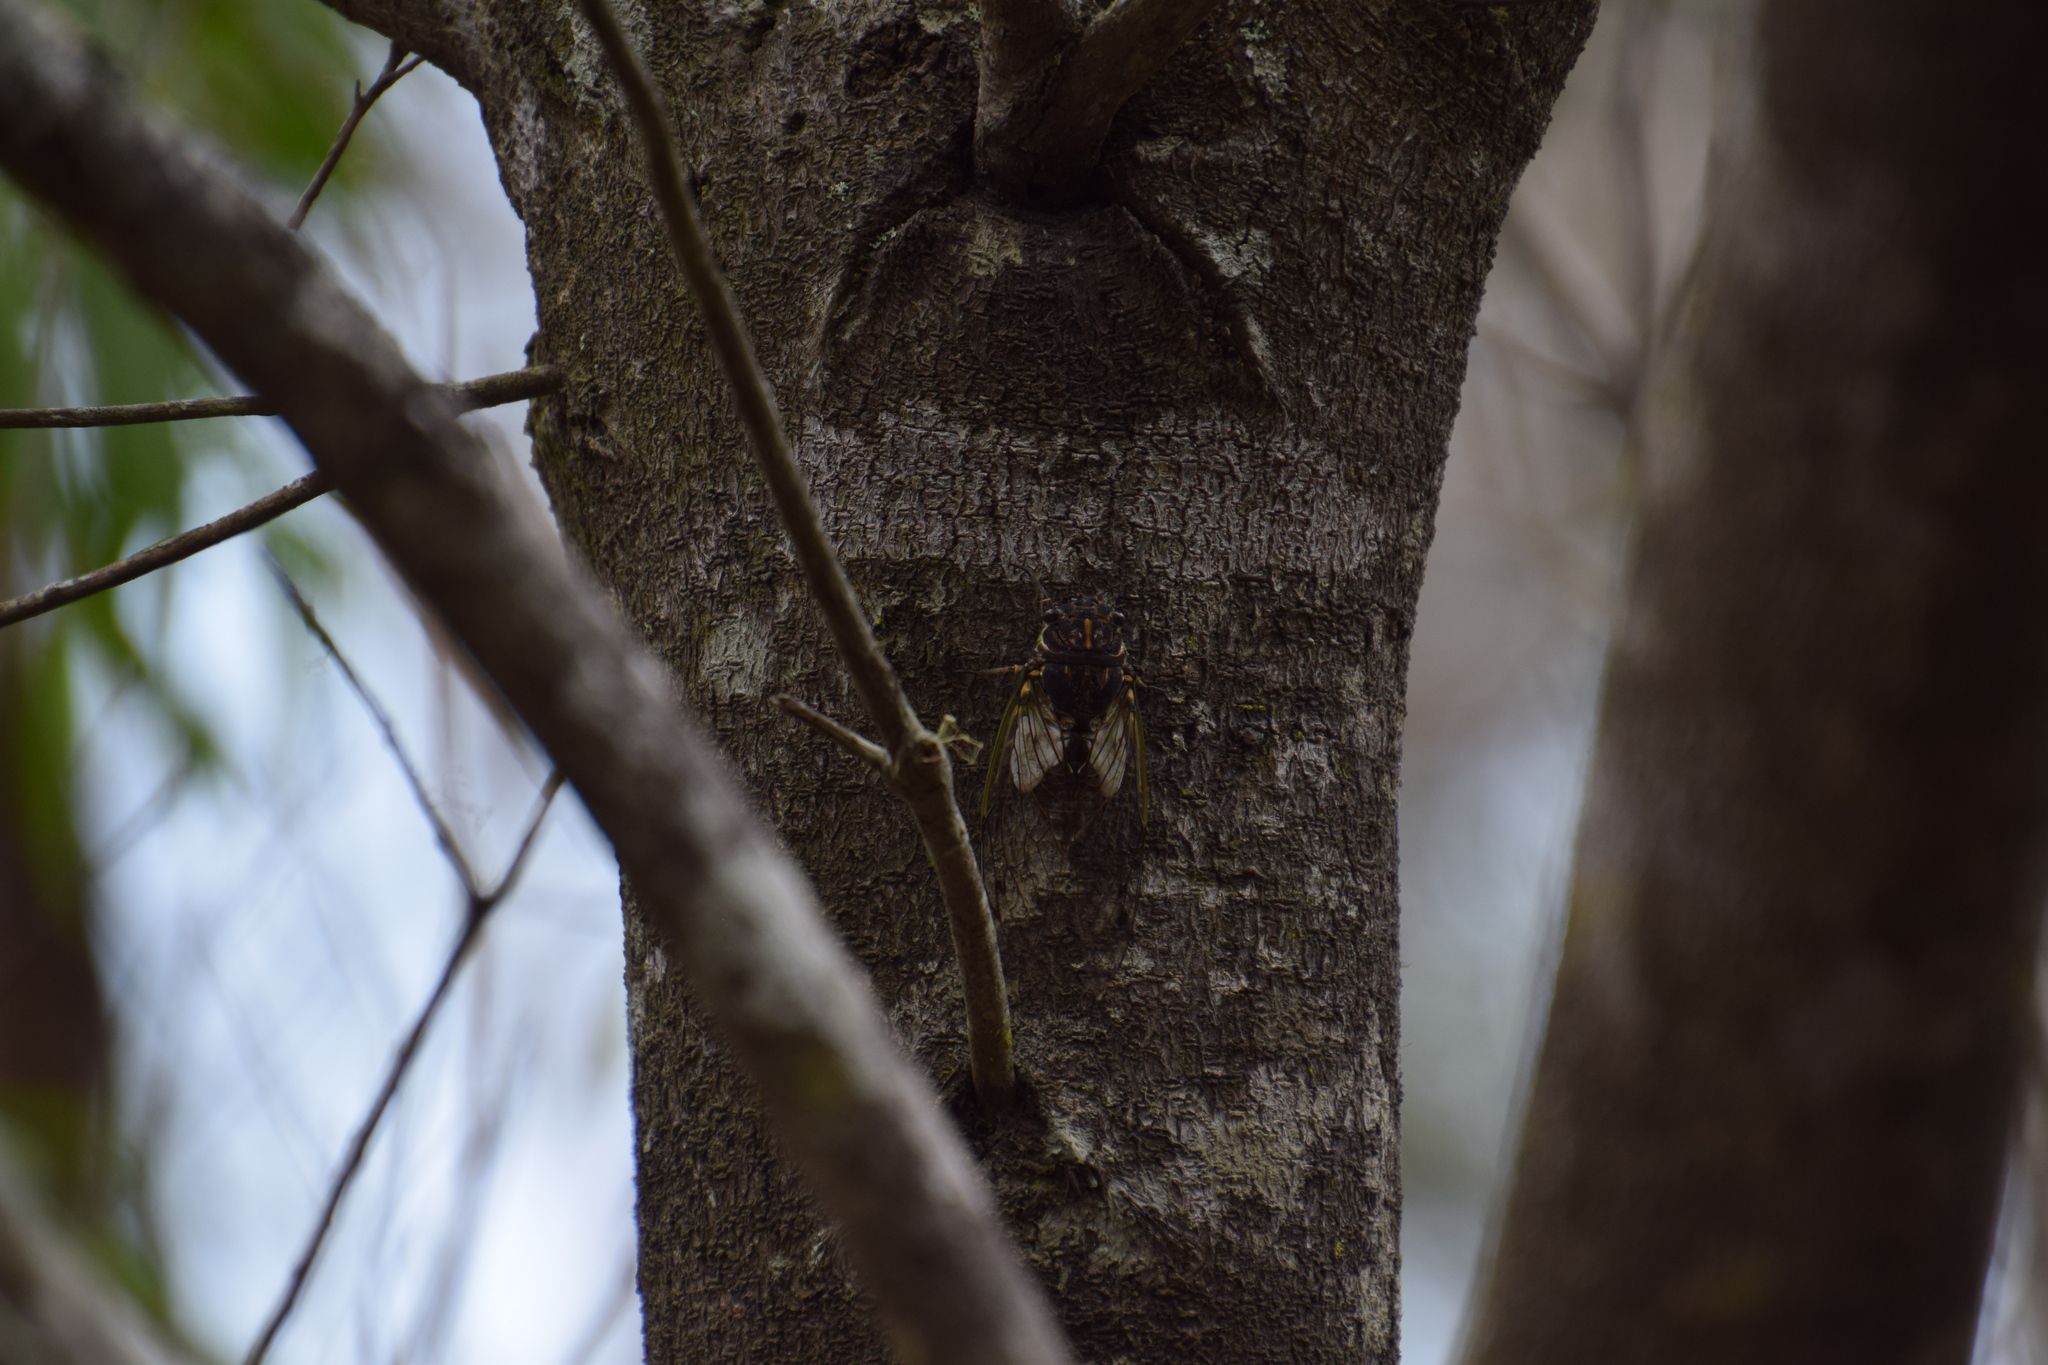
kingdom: Animalia
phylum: Arthropoda
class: Insecta
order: Hemiptera
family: Cicadidae
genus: Arunta
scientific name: Arunta perulata
